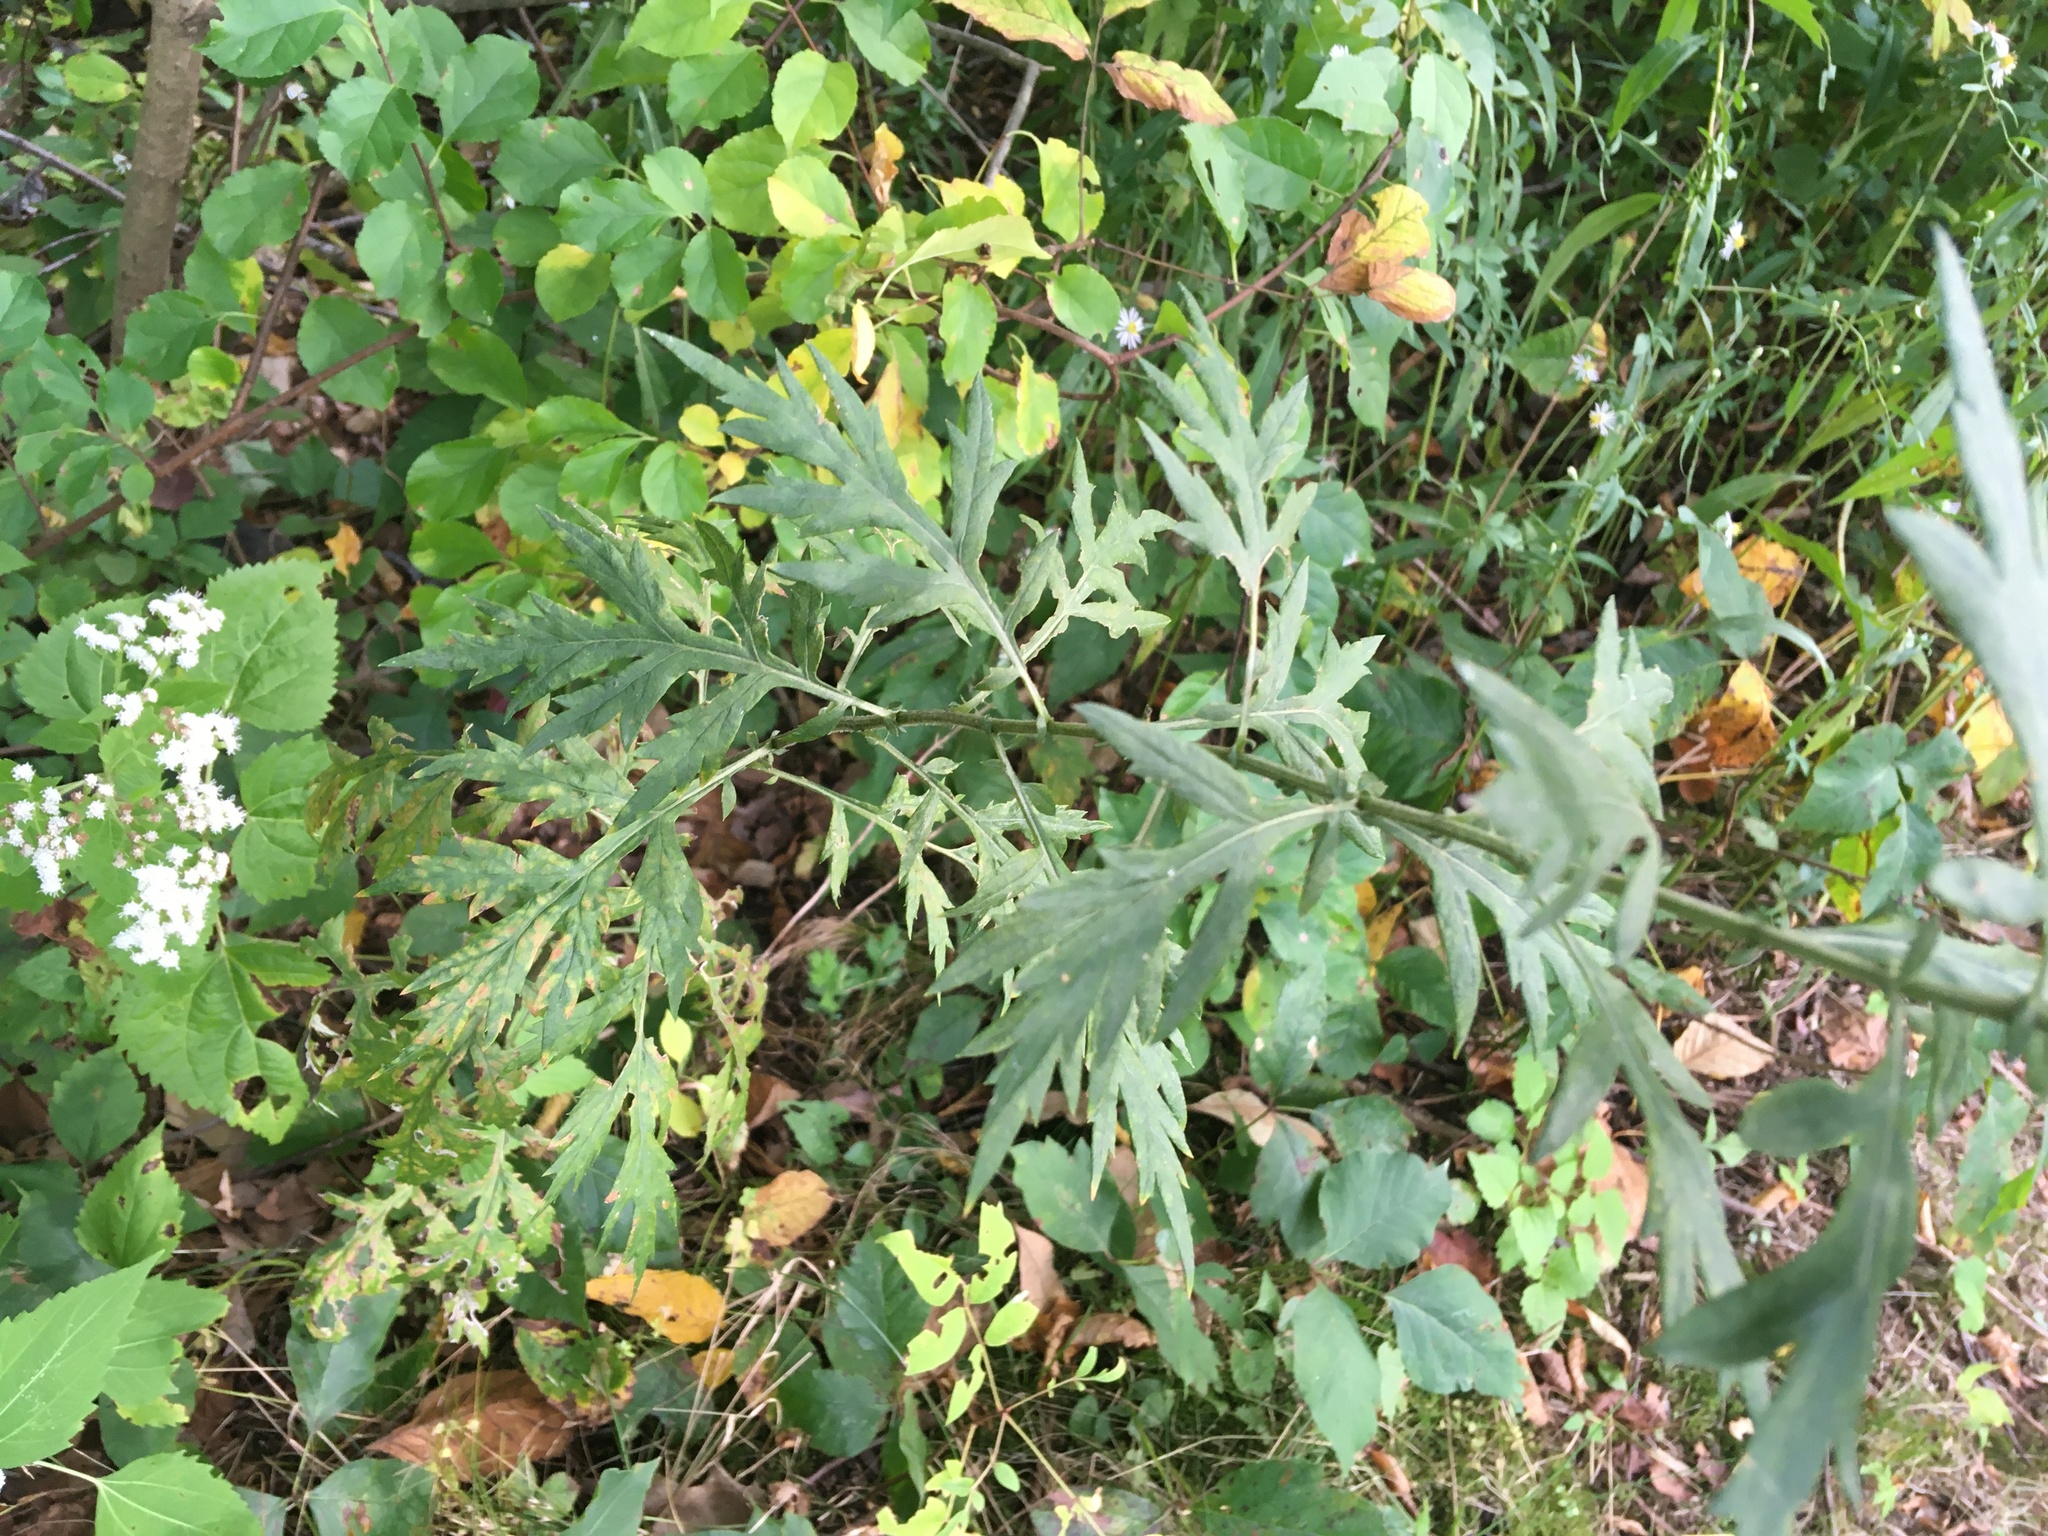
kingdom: Plantae
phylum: Tracheophyta
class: Magnoliopsida
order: Asterales
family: Asteraceae
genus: Artemisia
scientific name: Artemisia vulgaris
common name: Mugwort
